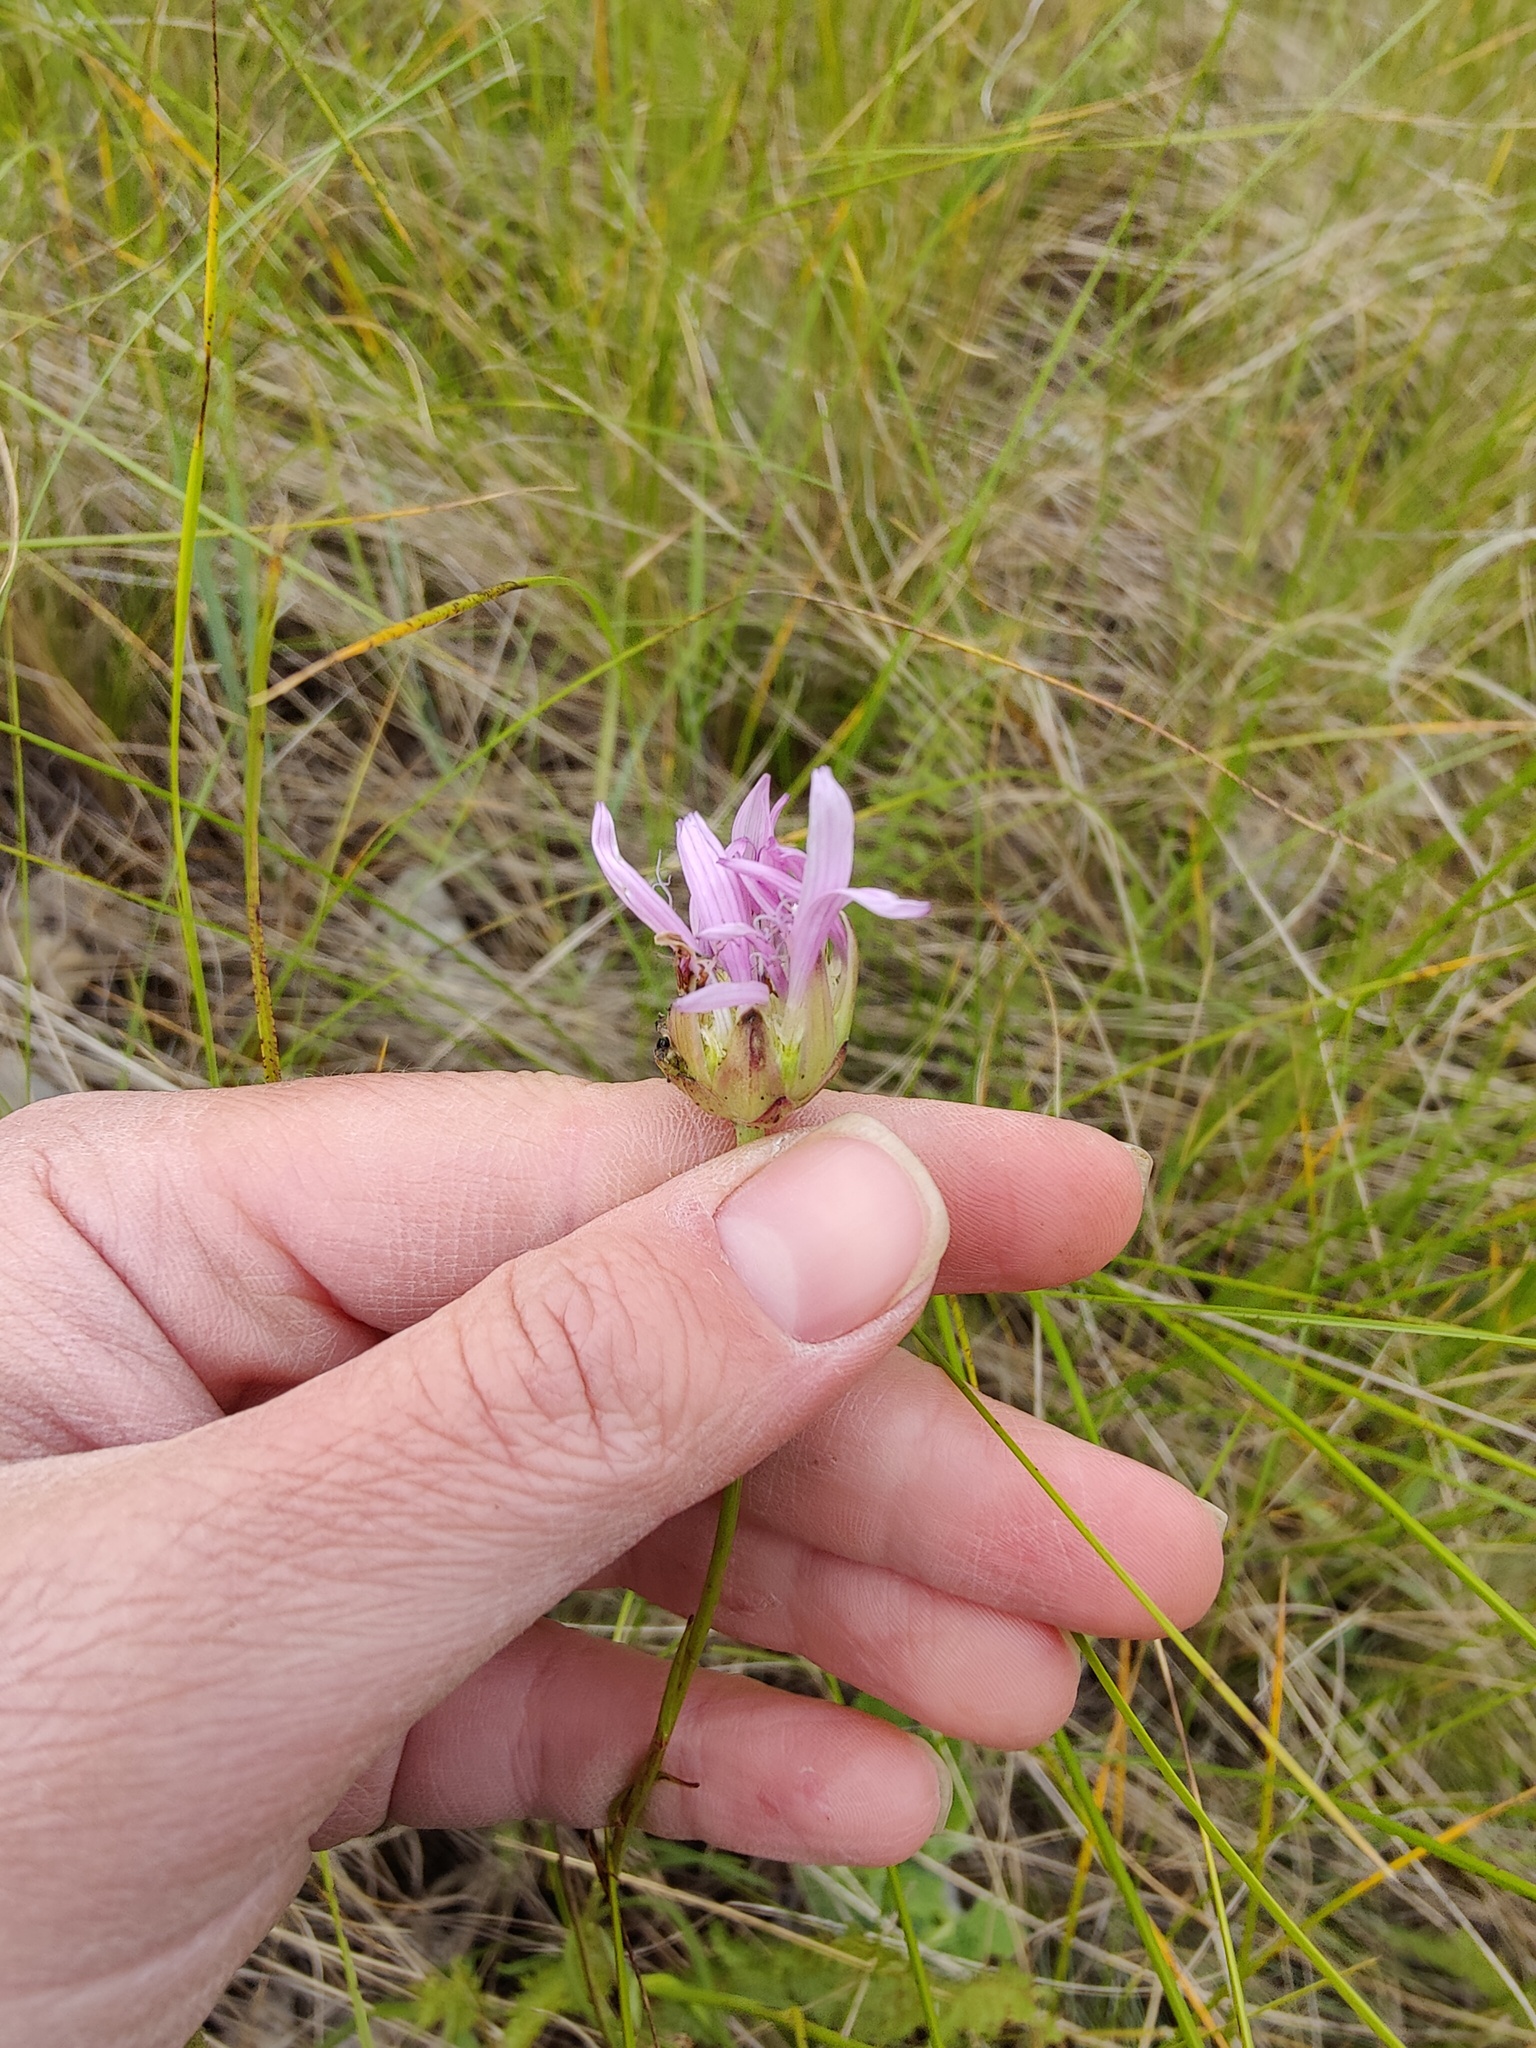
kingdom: Plantae
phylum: Tracheophyta
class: Magnoliopsida
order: Asterales
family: Asteraceae
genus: Scorzonera
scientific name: Scorzonera purpurea
